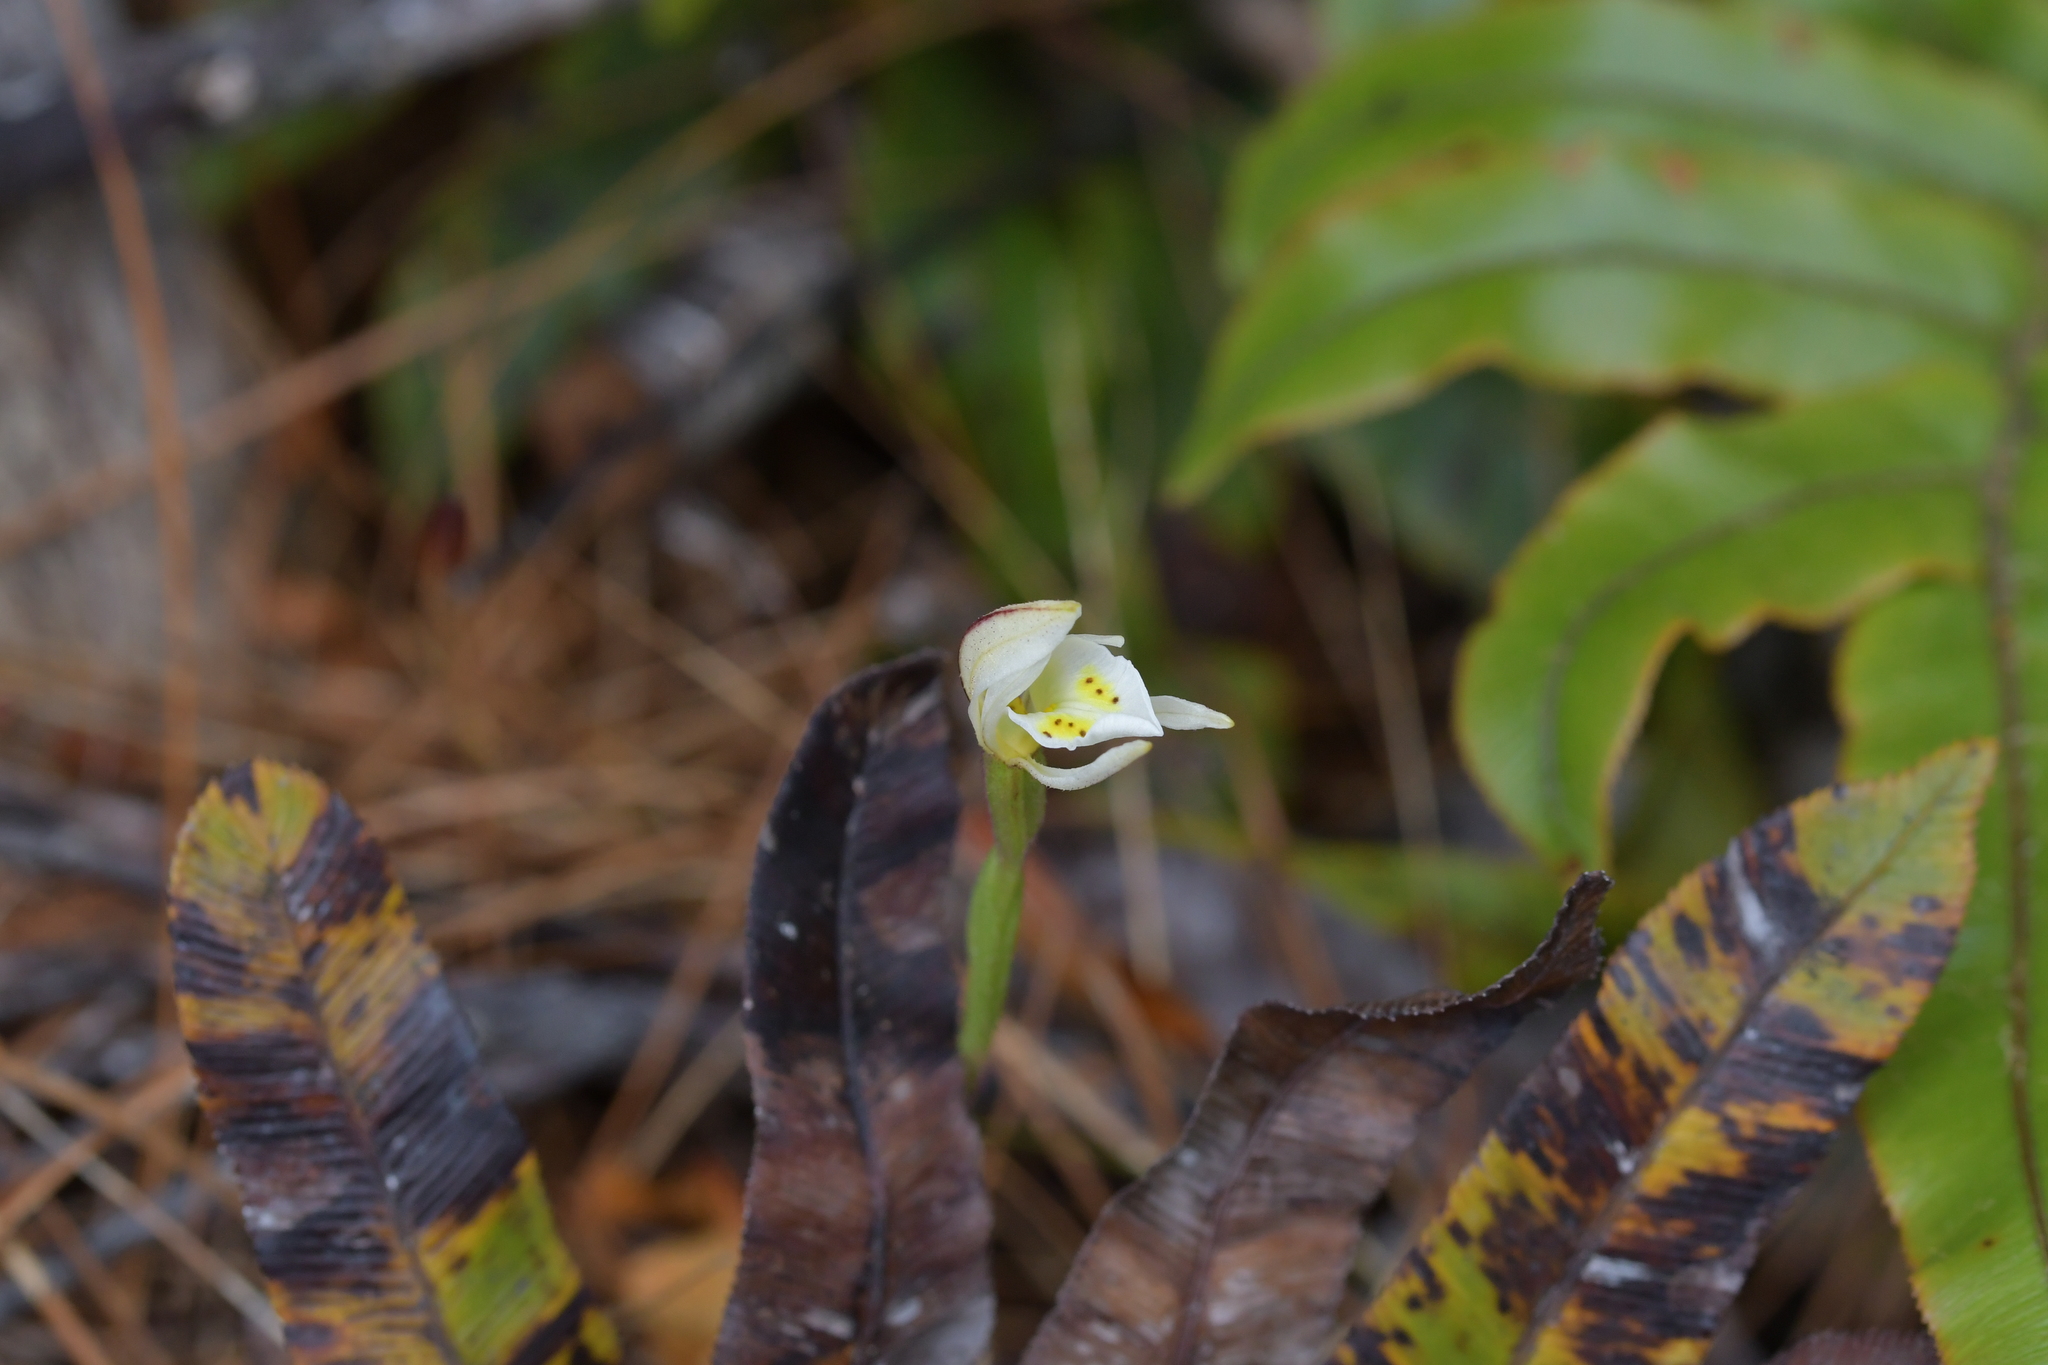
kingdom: Plantae
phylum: Tracheophyta
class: Liliopsida
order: Asparagales
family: Orchidaceae
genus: Aporostylis
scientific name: Aporostylis bifolia
